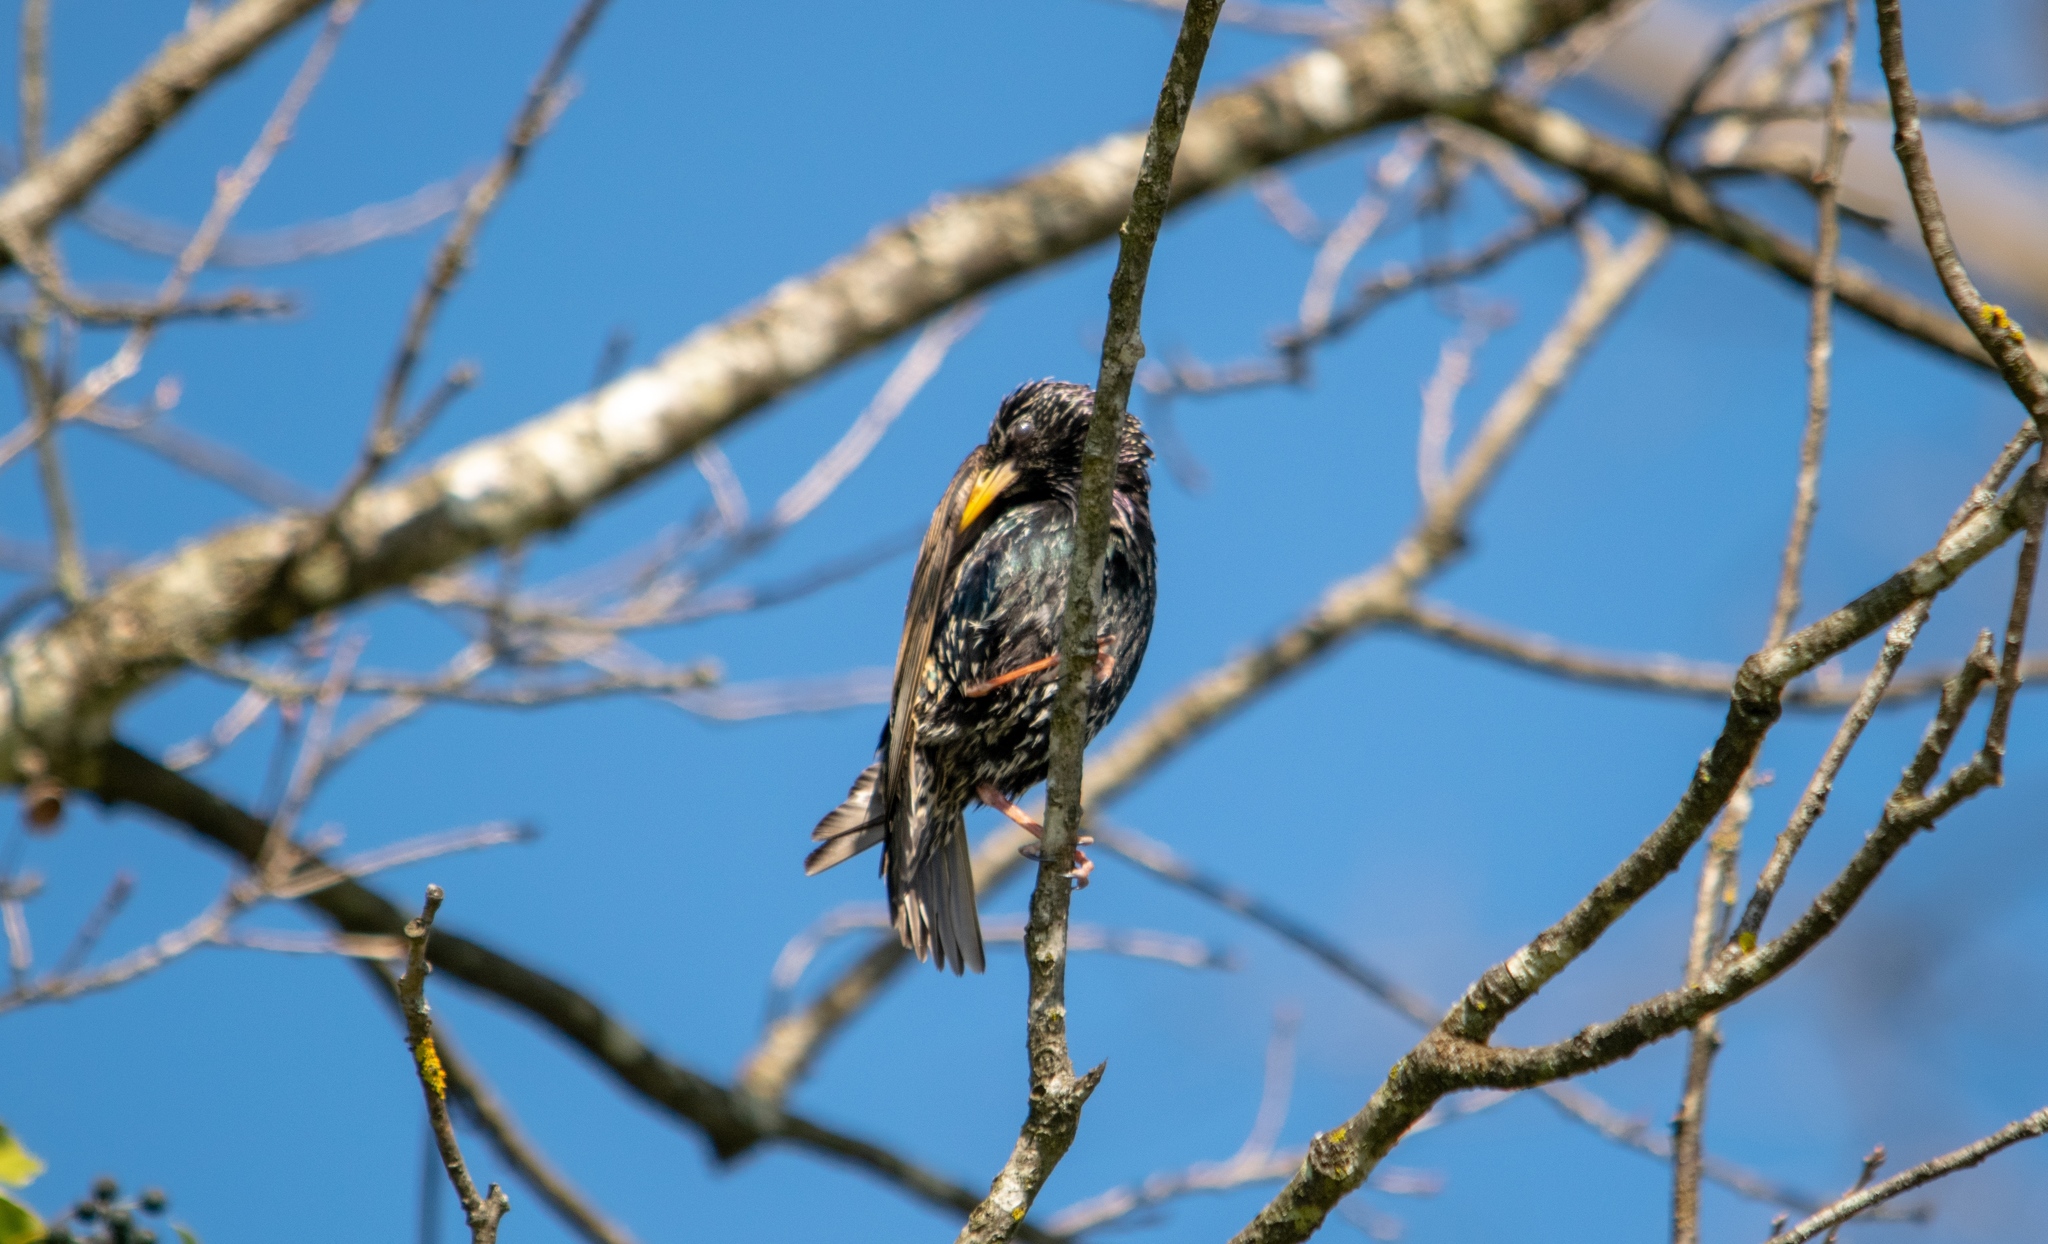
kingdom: Animalia
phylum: Chordata
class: Aves
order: Passeriformes
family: Sturnidae
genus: Sturnus
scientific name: Sturnus vulgaris
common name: Common starling
